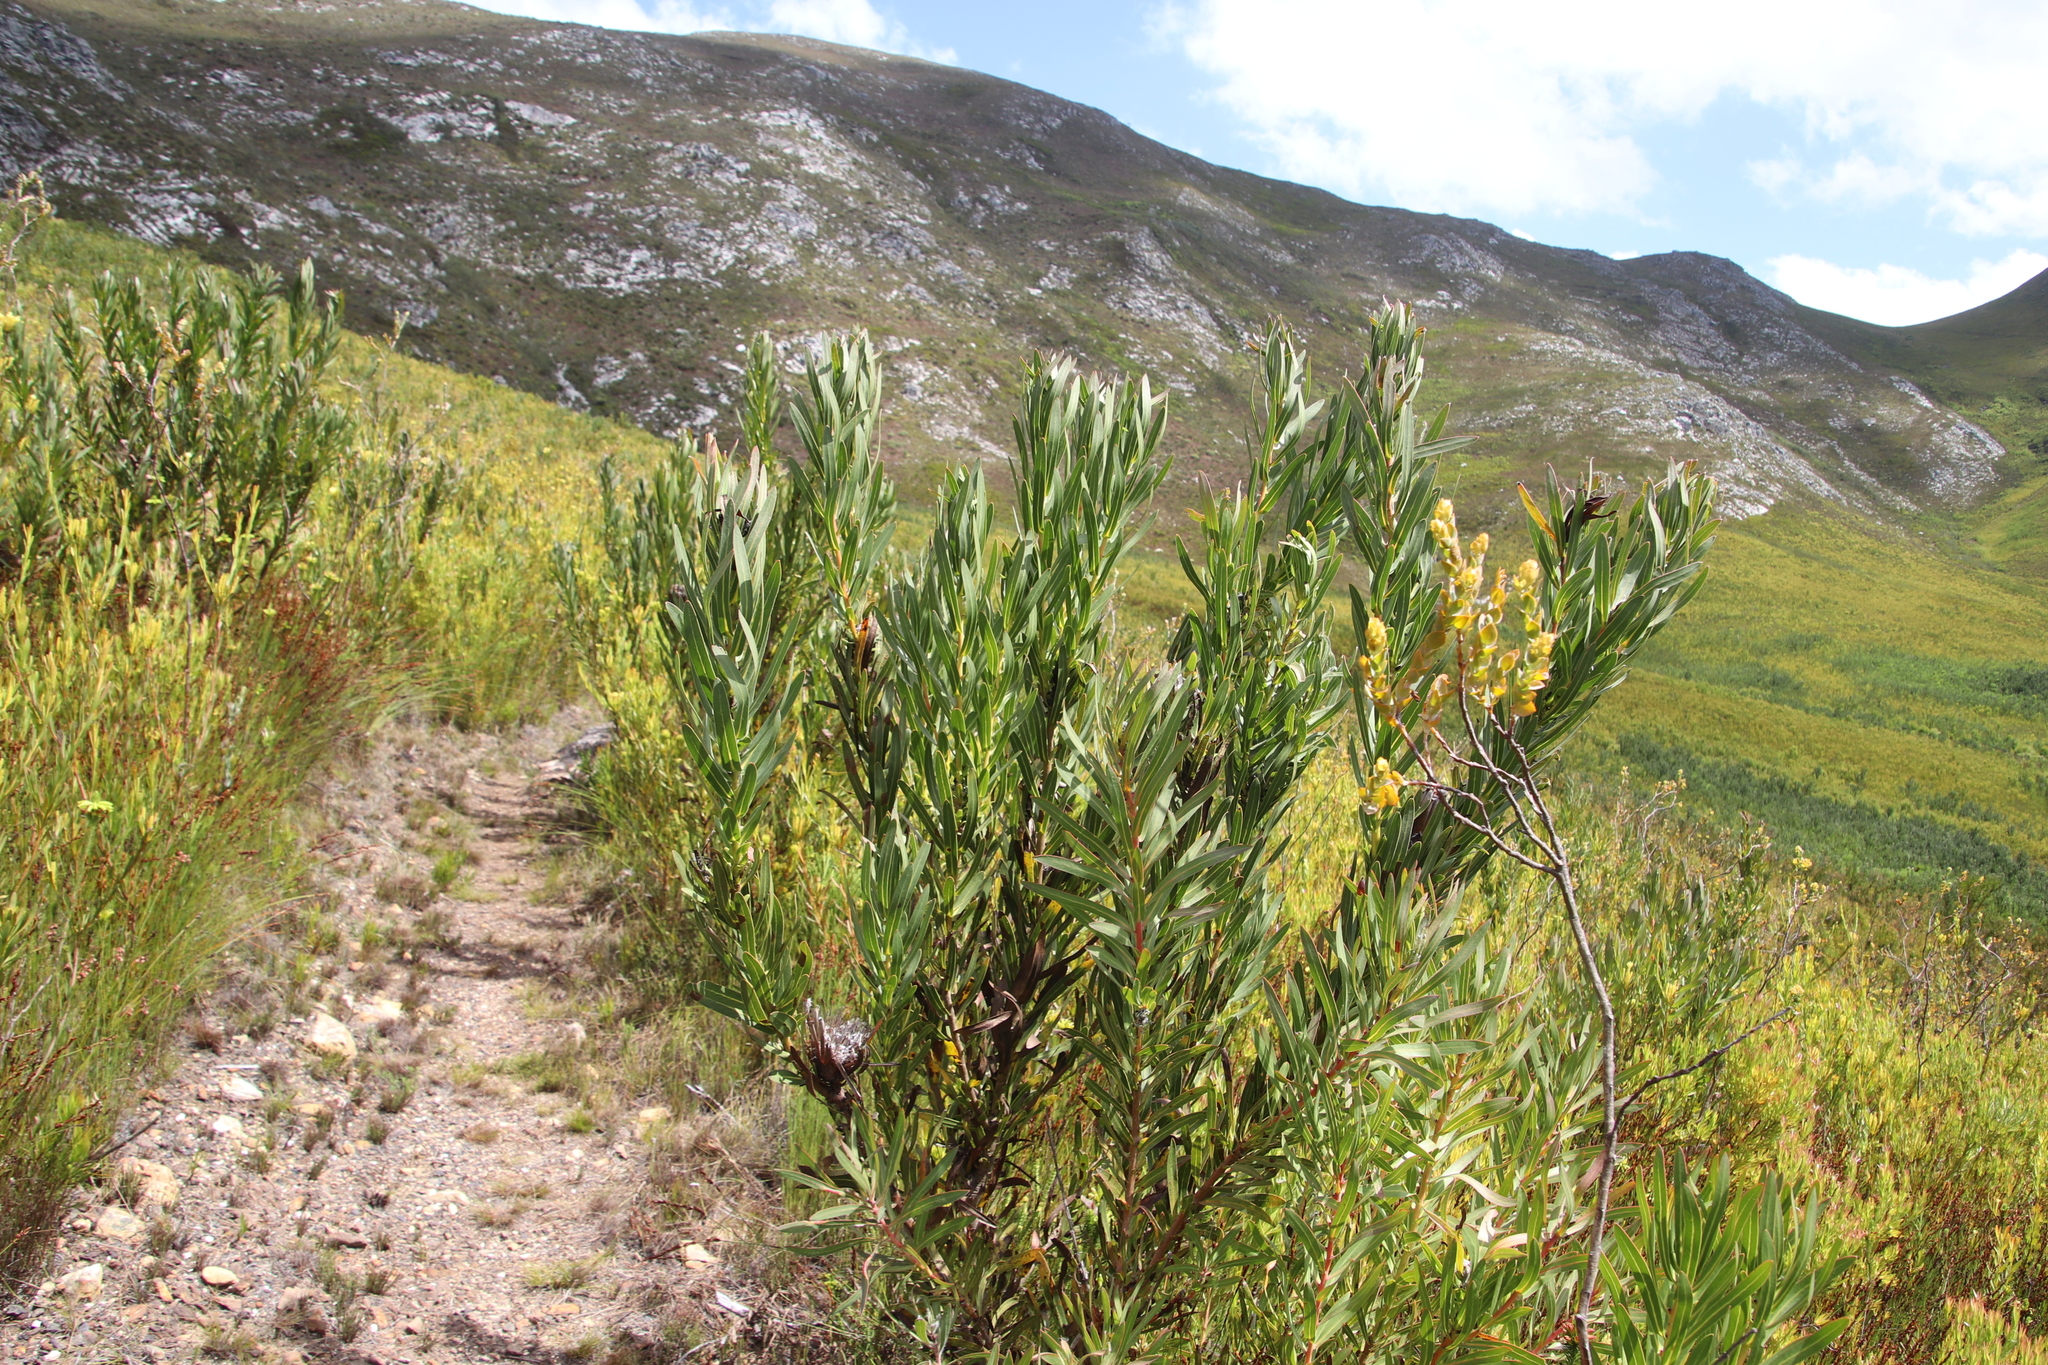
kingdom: Plantae
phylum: Tracheophyta
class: Magnoliopsida
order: Proteales
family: Proteaceae
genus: Protea
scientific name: Protea lepidocarpodendron
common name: Black-bearded protea
